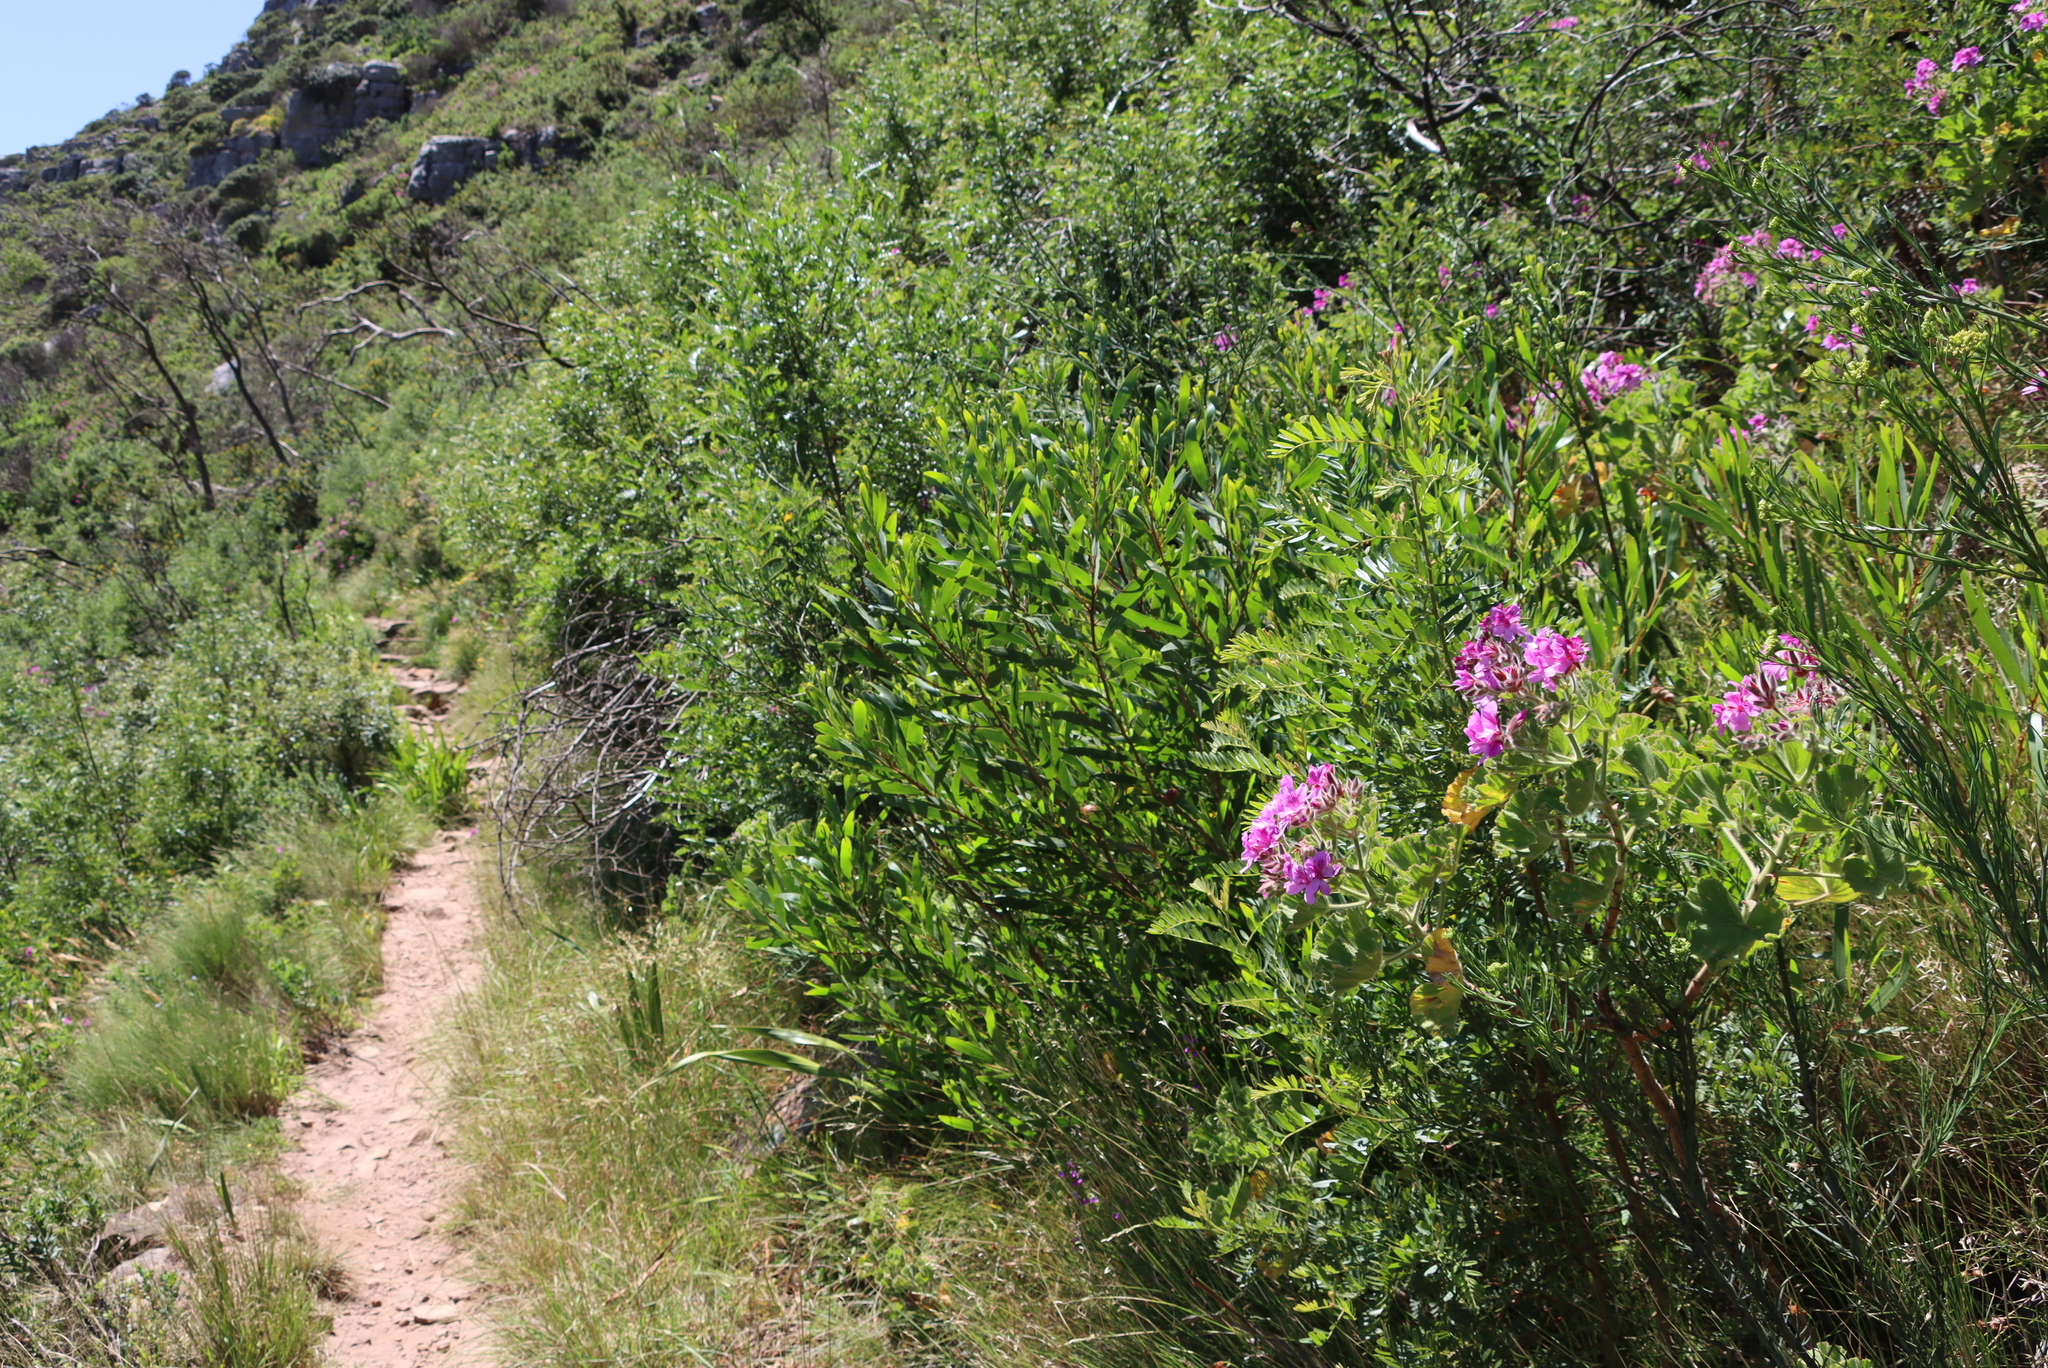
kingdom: Plantae
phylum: Tracheophyta
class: Magnoliopsida
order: Fabales
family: Fabaceae
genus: Acacia
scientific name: Acacia longifolia
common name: Sydney golden wattle
